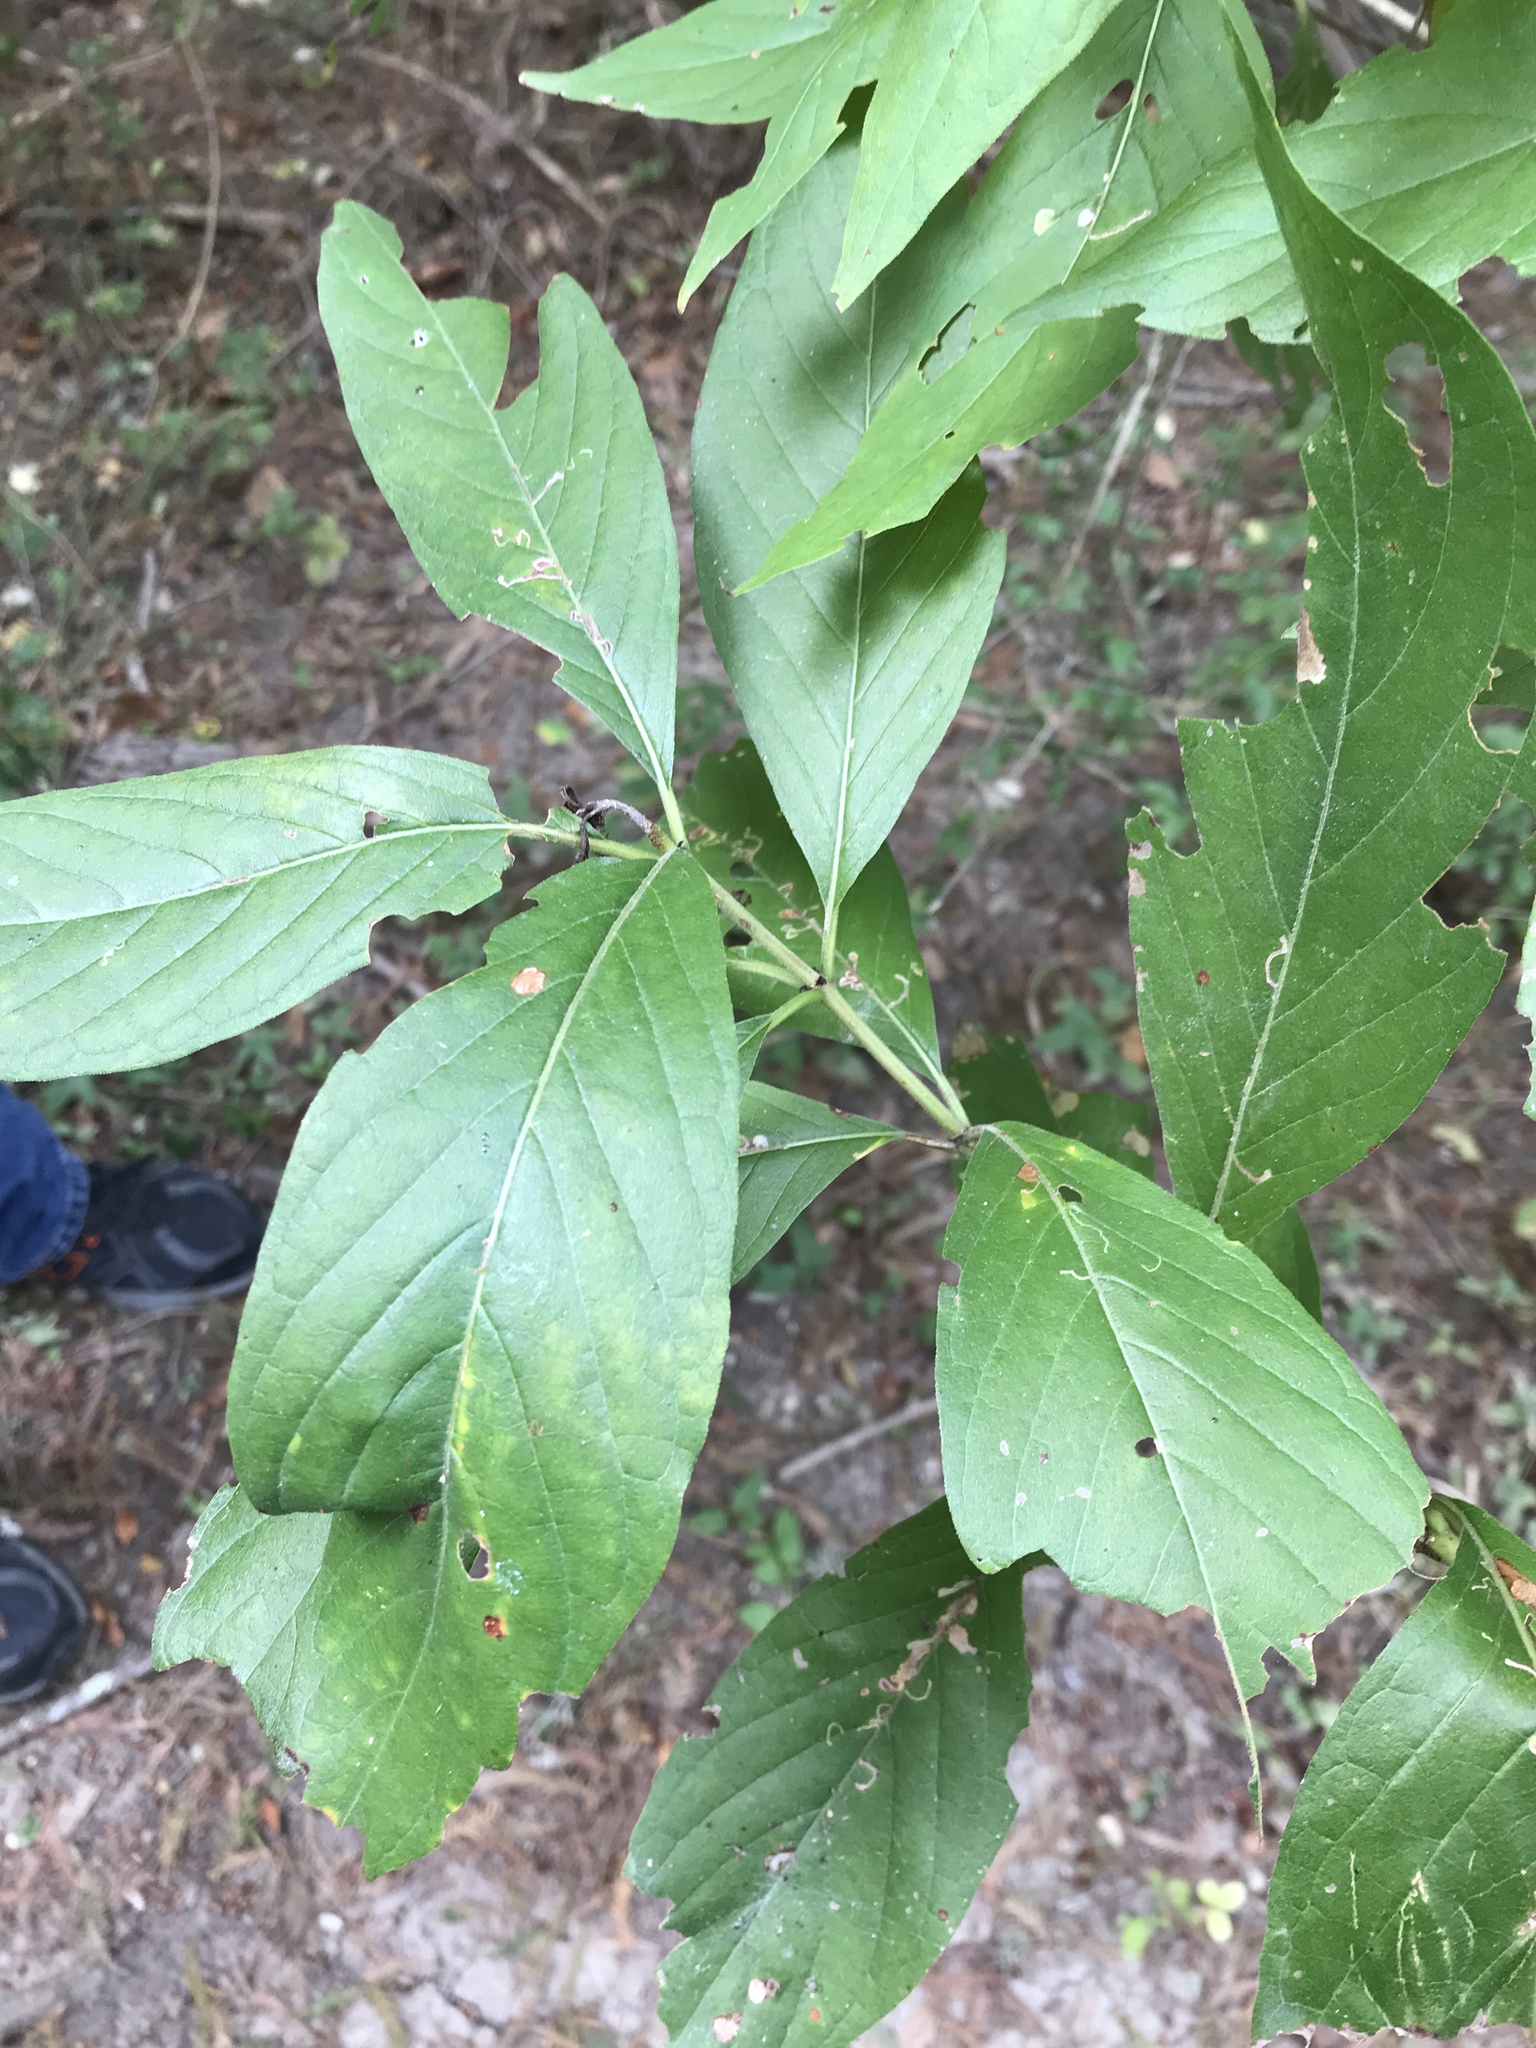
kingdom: Plantae
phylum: Tracheophyta
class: Magnoliopsida
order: Gentianales
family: Rubiaceae
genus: Cephalanthus
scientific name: Cephalanthus occidentalis
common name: Button-willow
